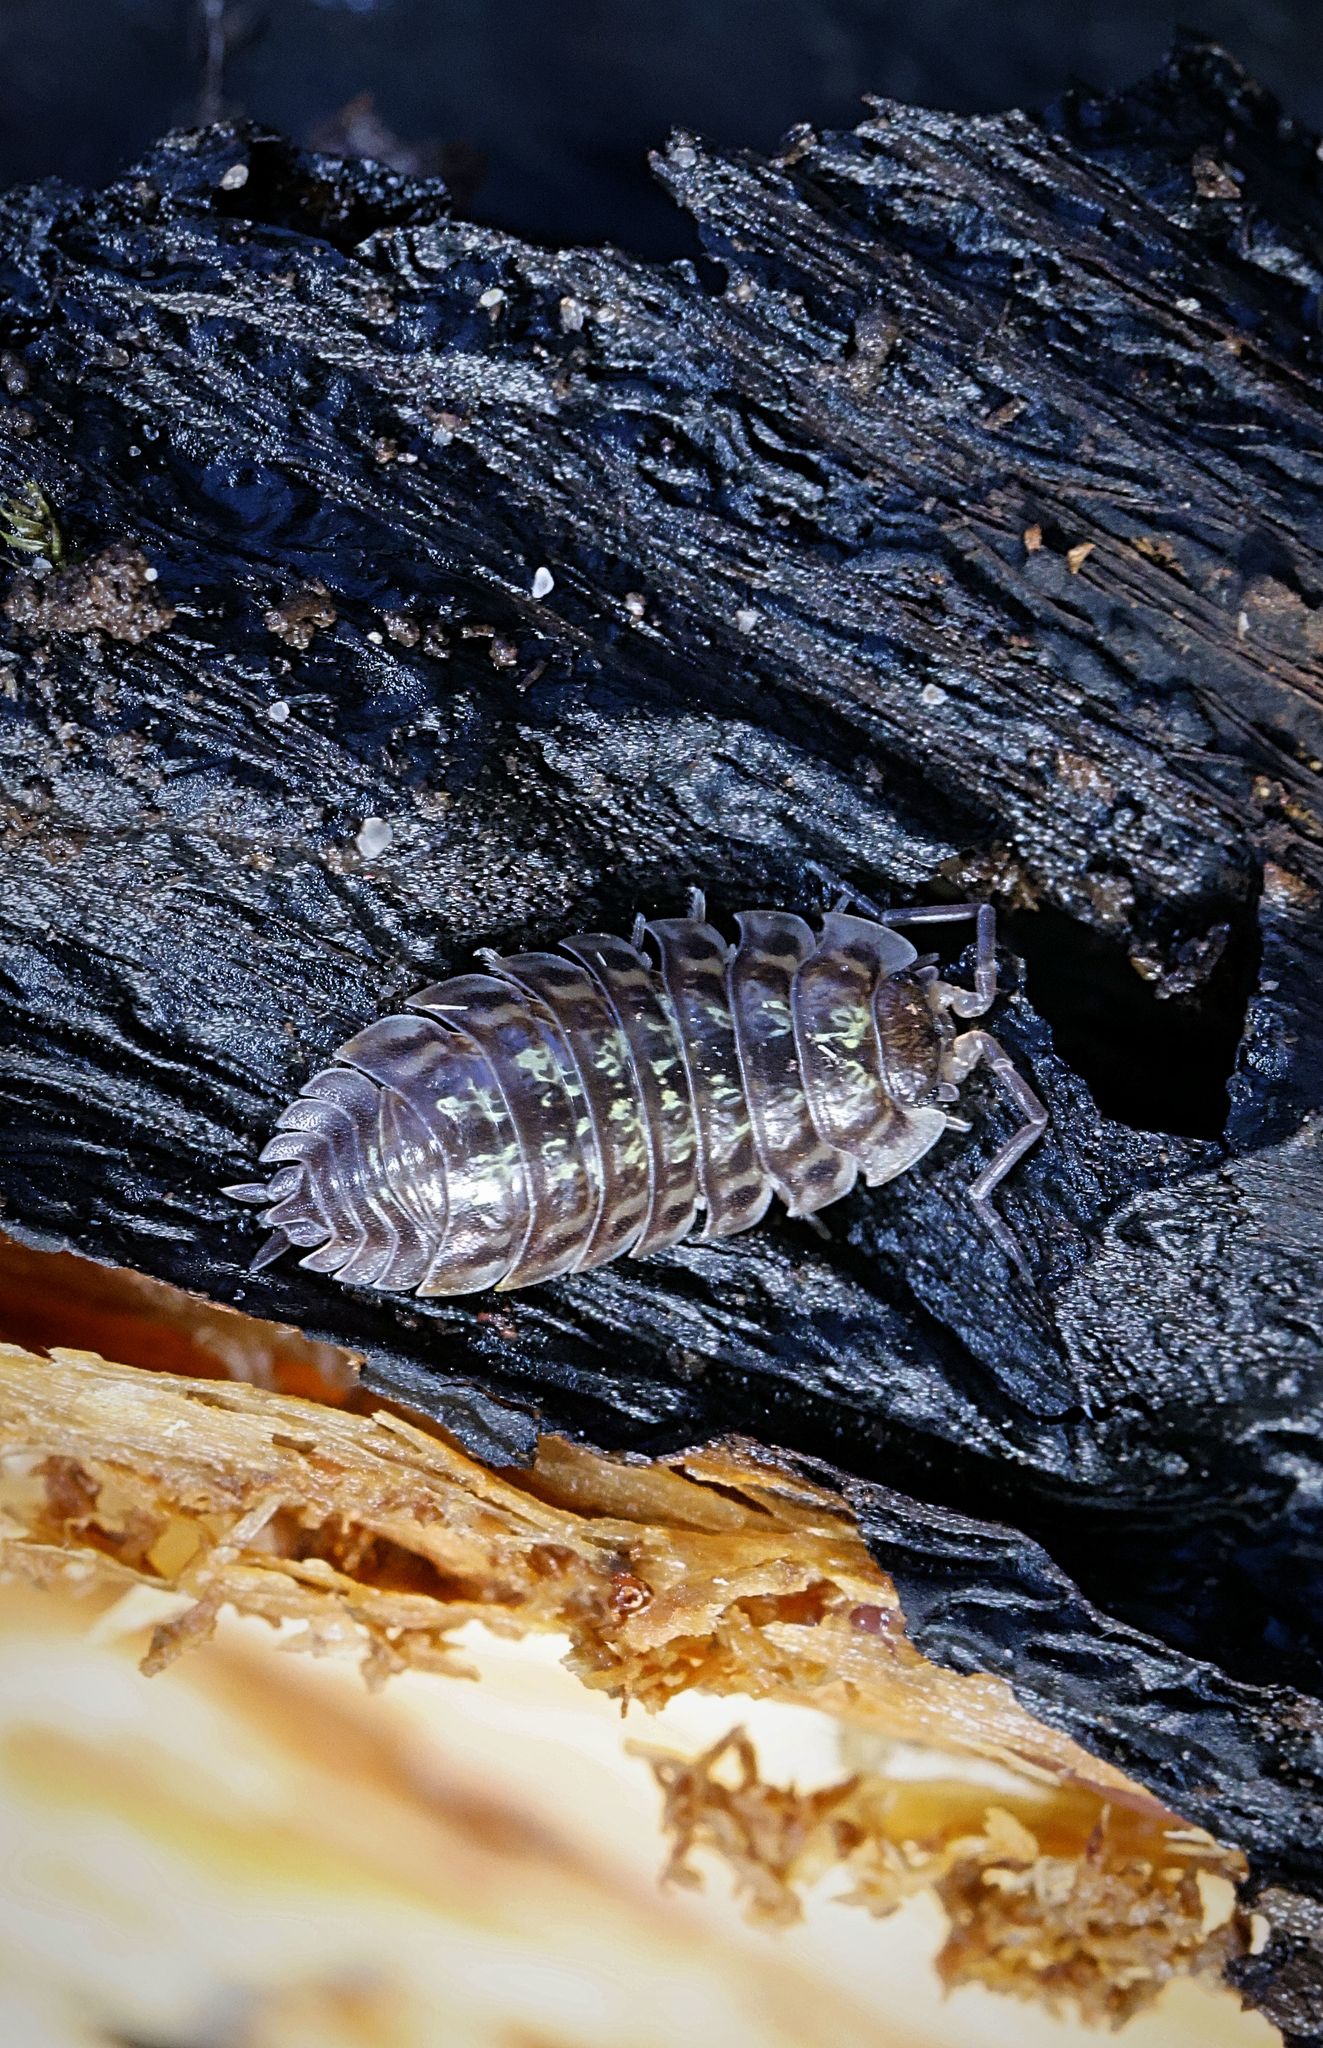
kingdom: Animalia
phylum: Arthropoda
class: Malacostraca
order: Isopoda
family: Oniscidae
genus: Oniscus
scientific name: Oniscus asellus
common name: Common shiny woodlouse
